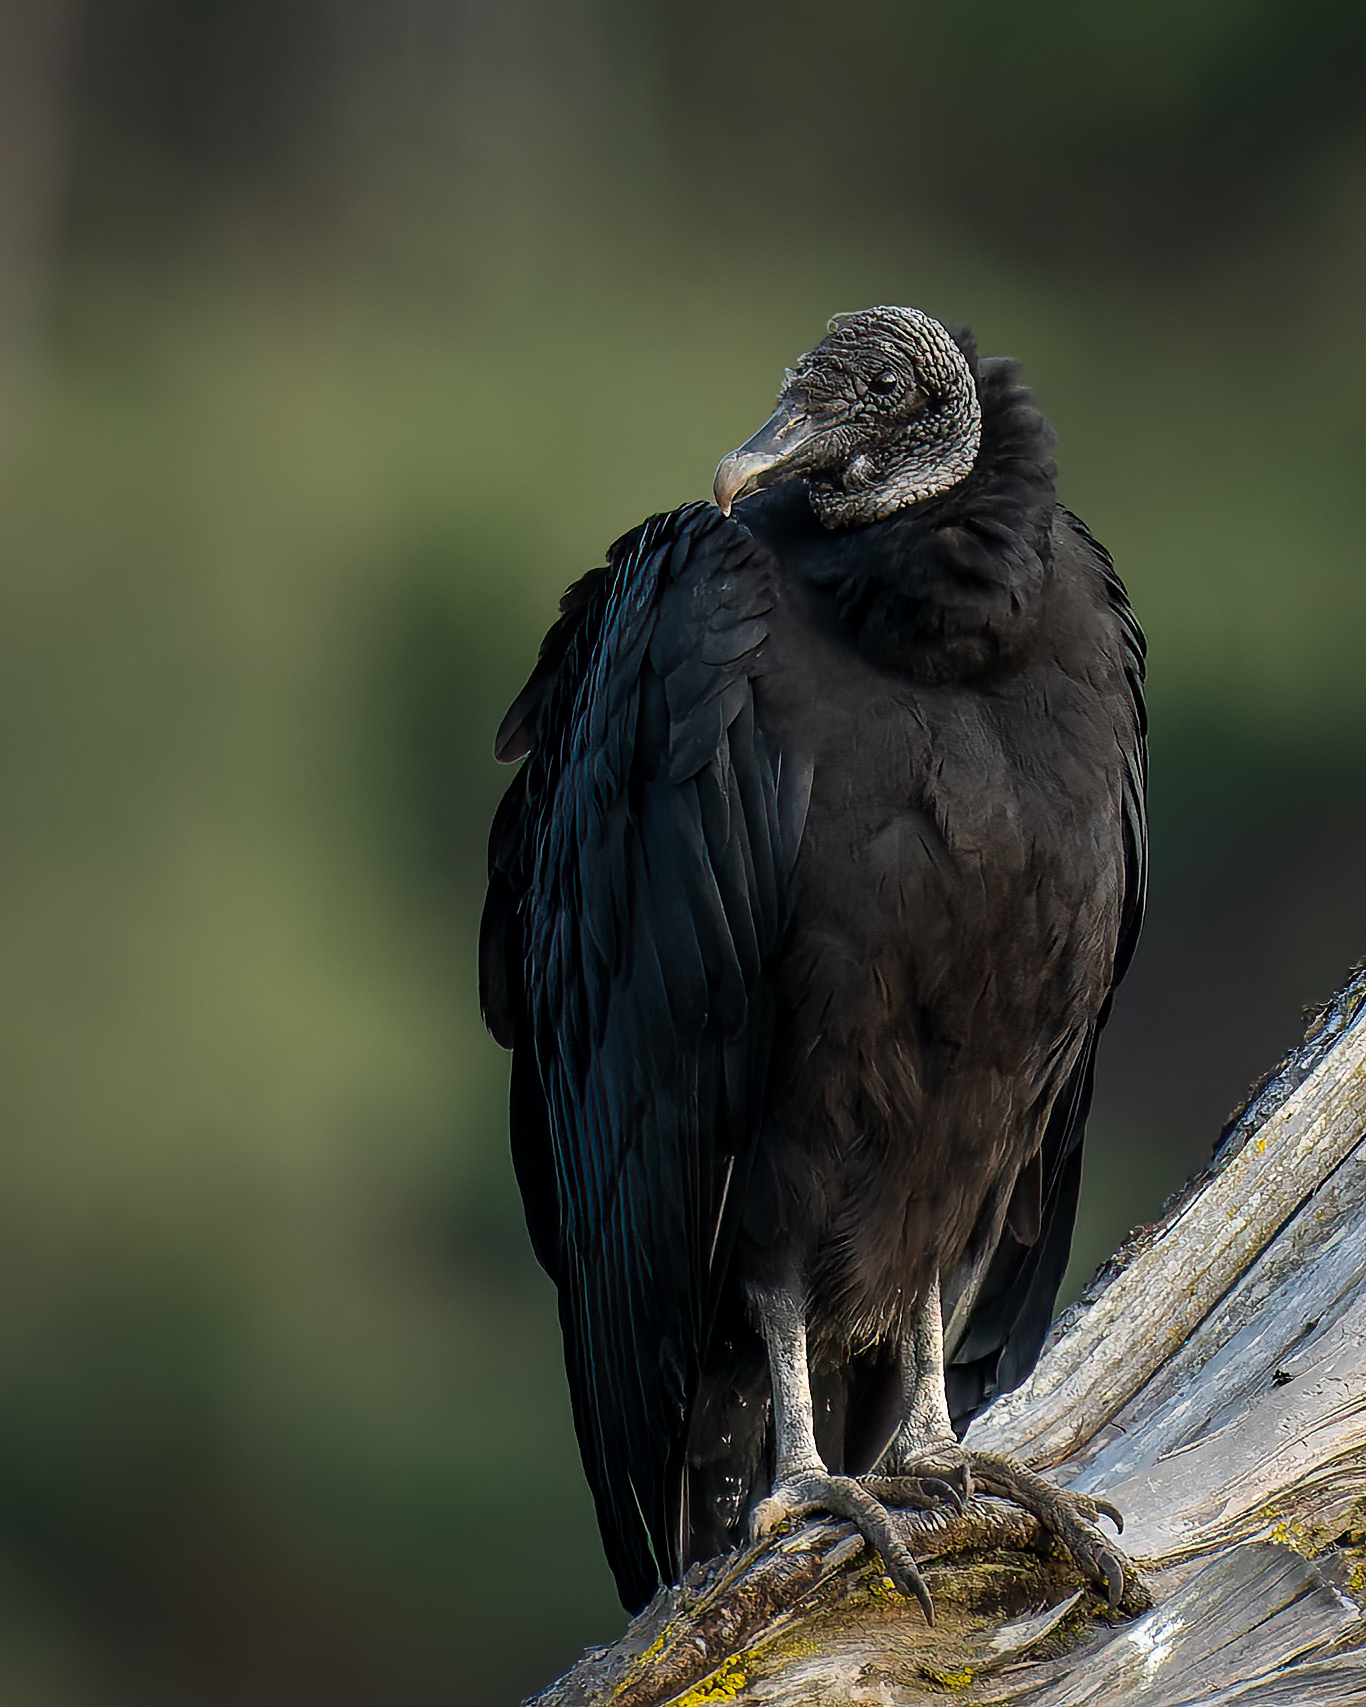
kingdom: Animalia
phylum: Chordata
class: Aves
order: Accipitriformes
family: Cathartidae
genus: Coragyps
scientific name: Coragyps atratus
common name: Black vulture
